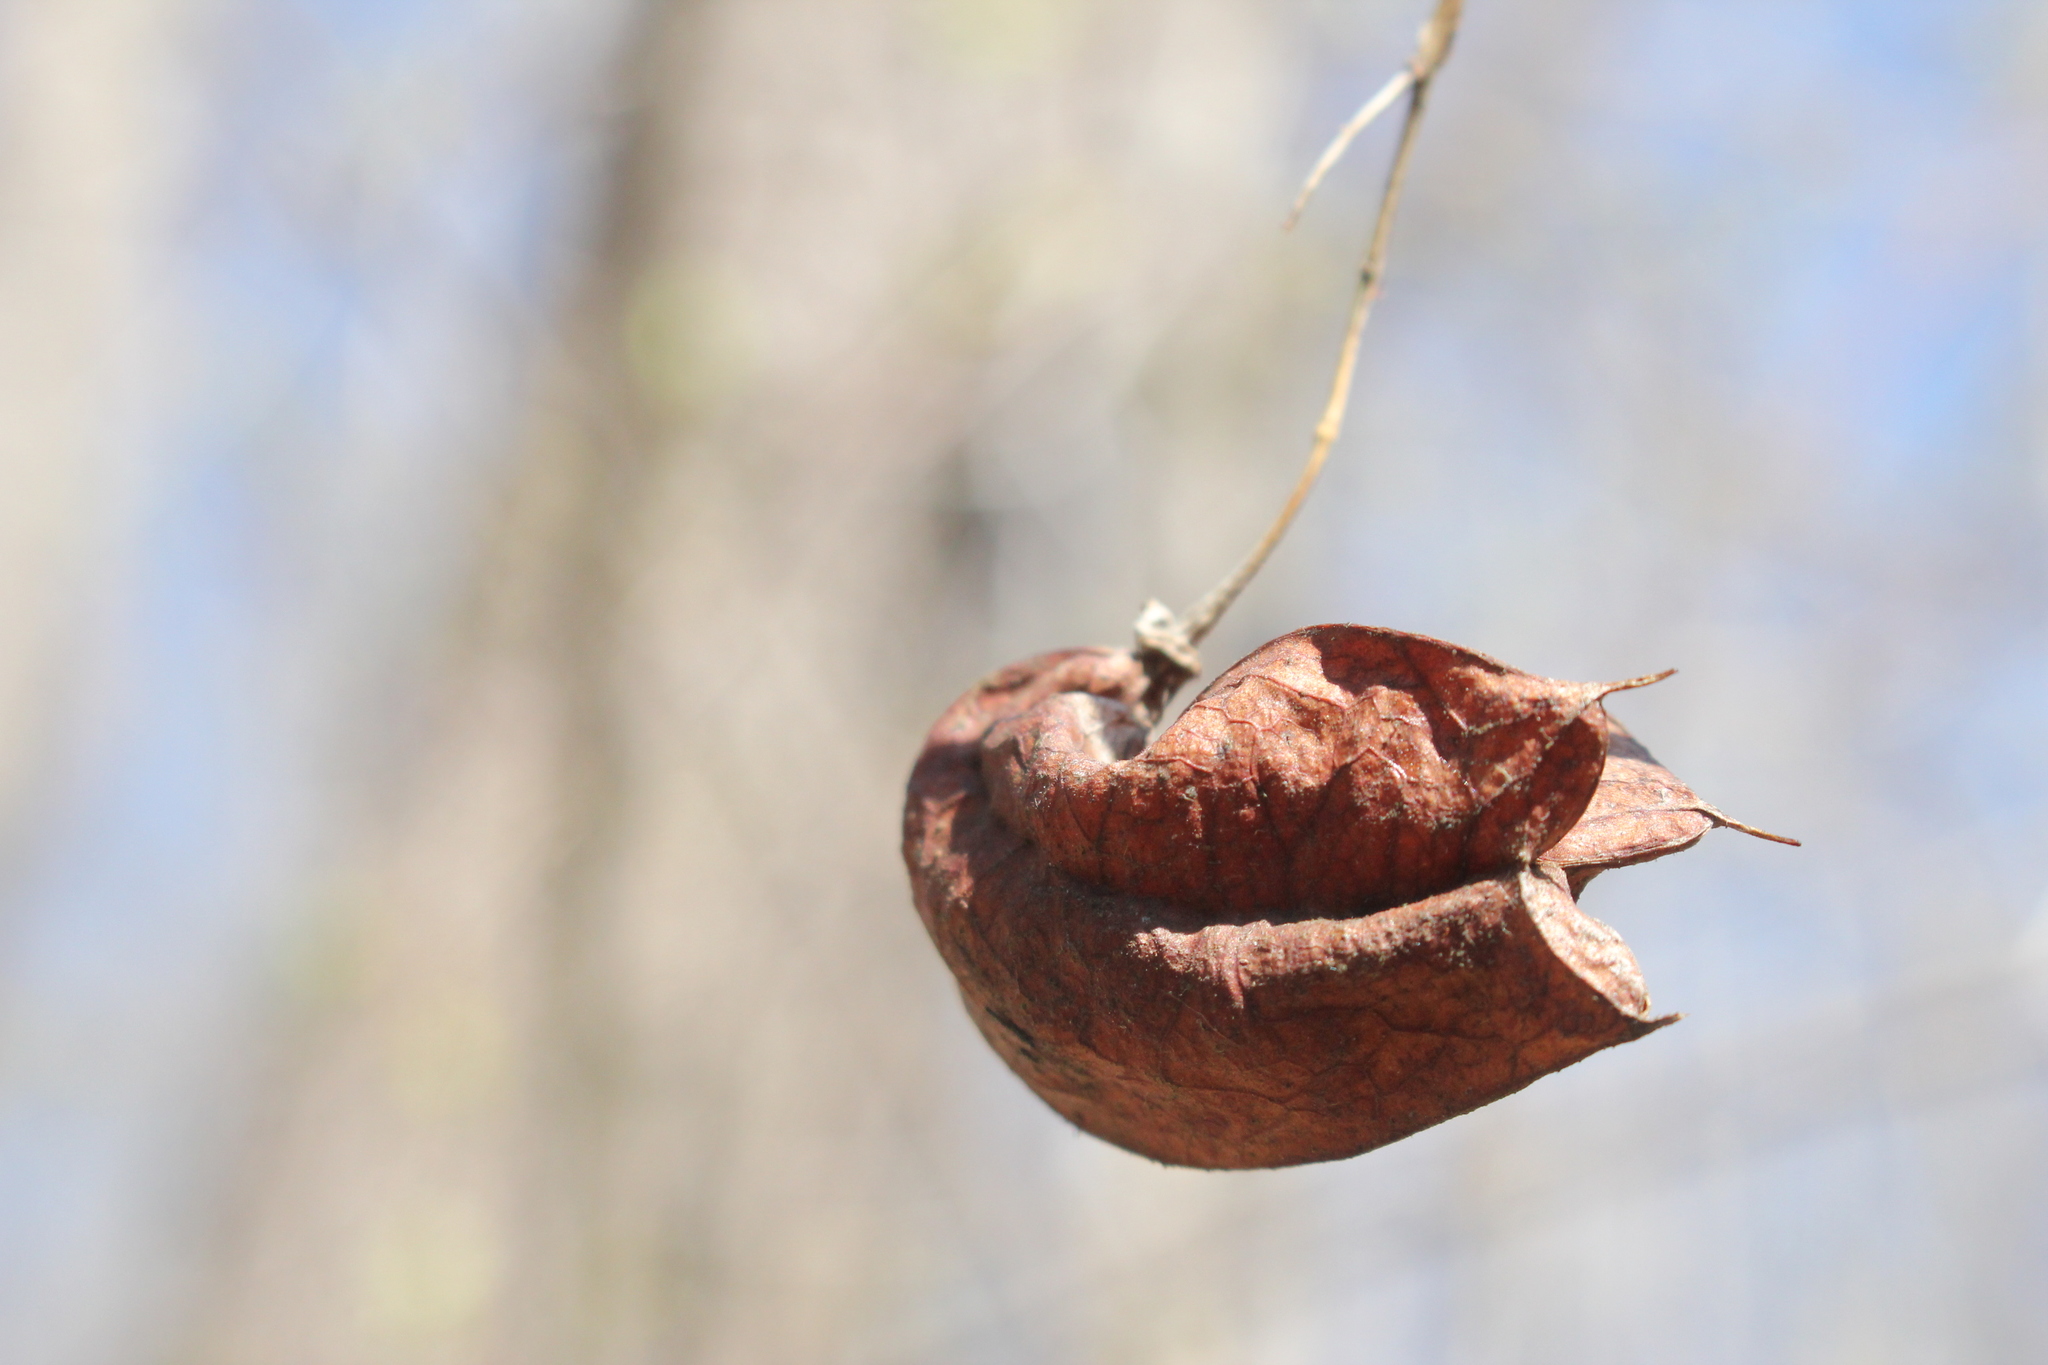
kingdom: Plantae
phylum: Tracheophyta
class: Magnoliopsida
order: Crossosomatales
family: Staphyleaceae
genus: Staphylea
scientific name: Staphylea trifolia
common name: American bladdernut
